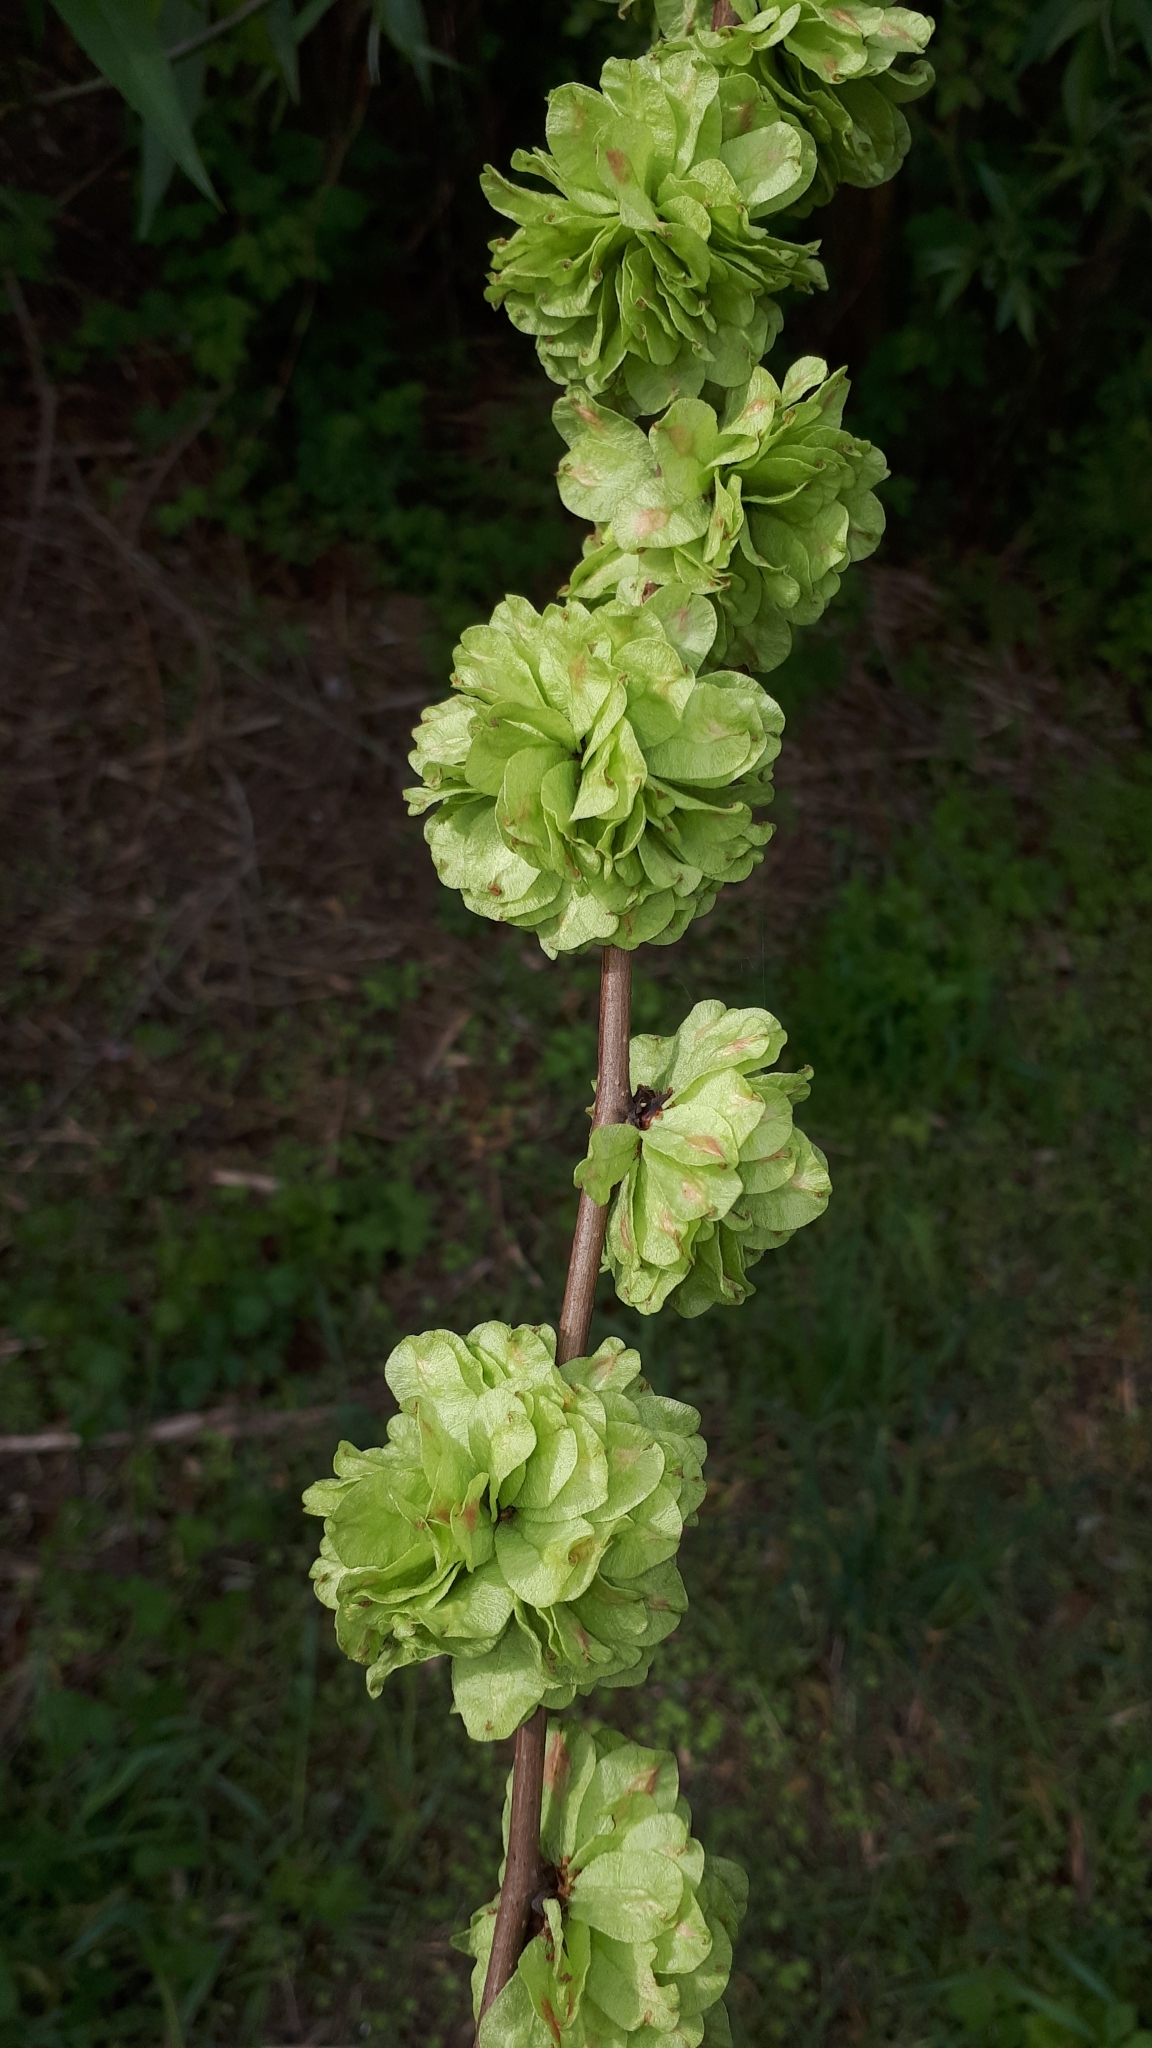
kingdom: Plantae
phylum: Tracheophyta
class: Magnoliopsida
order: Rosales
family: Ulmaceae
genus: Ulmus
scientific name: Ulmus minor
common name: Small-leaved elm
